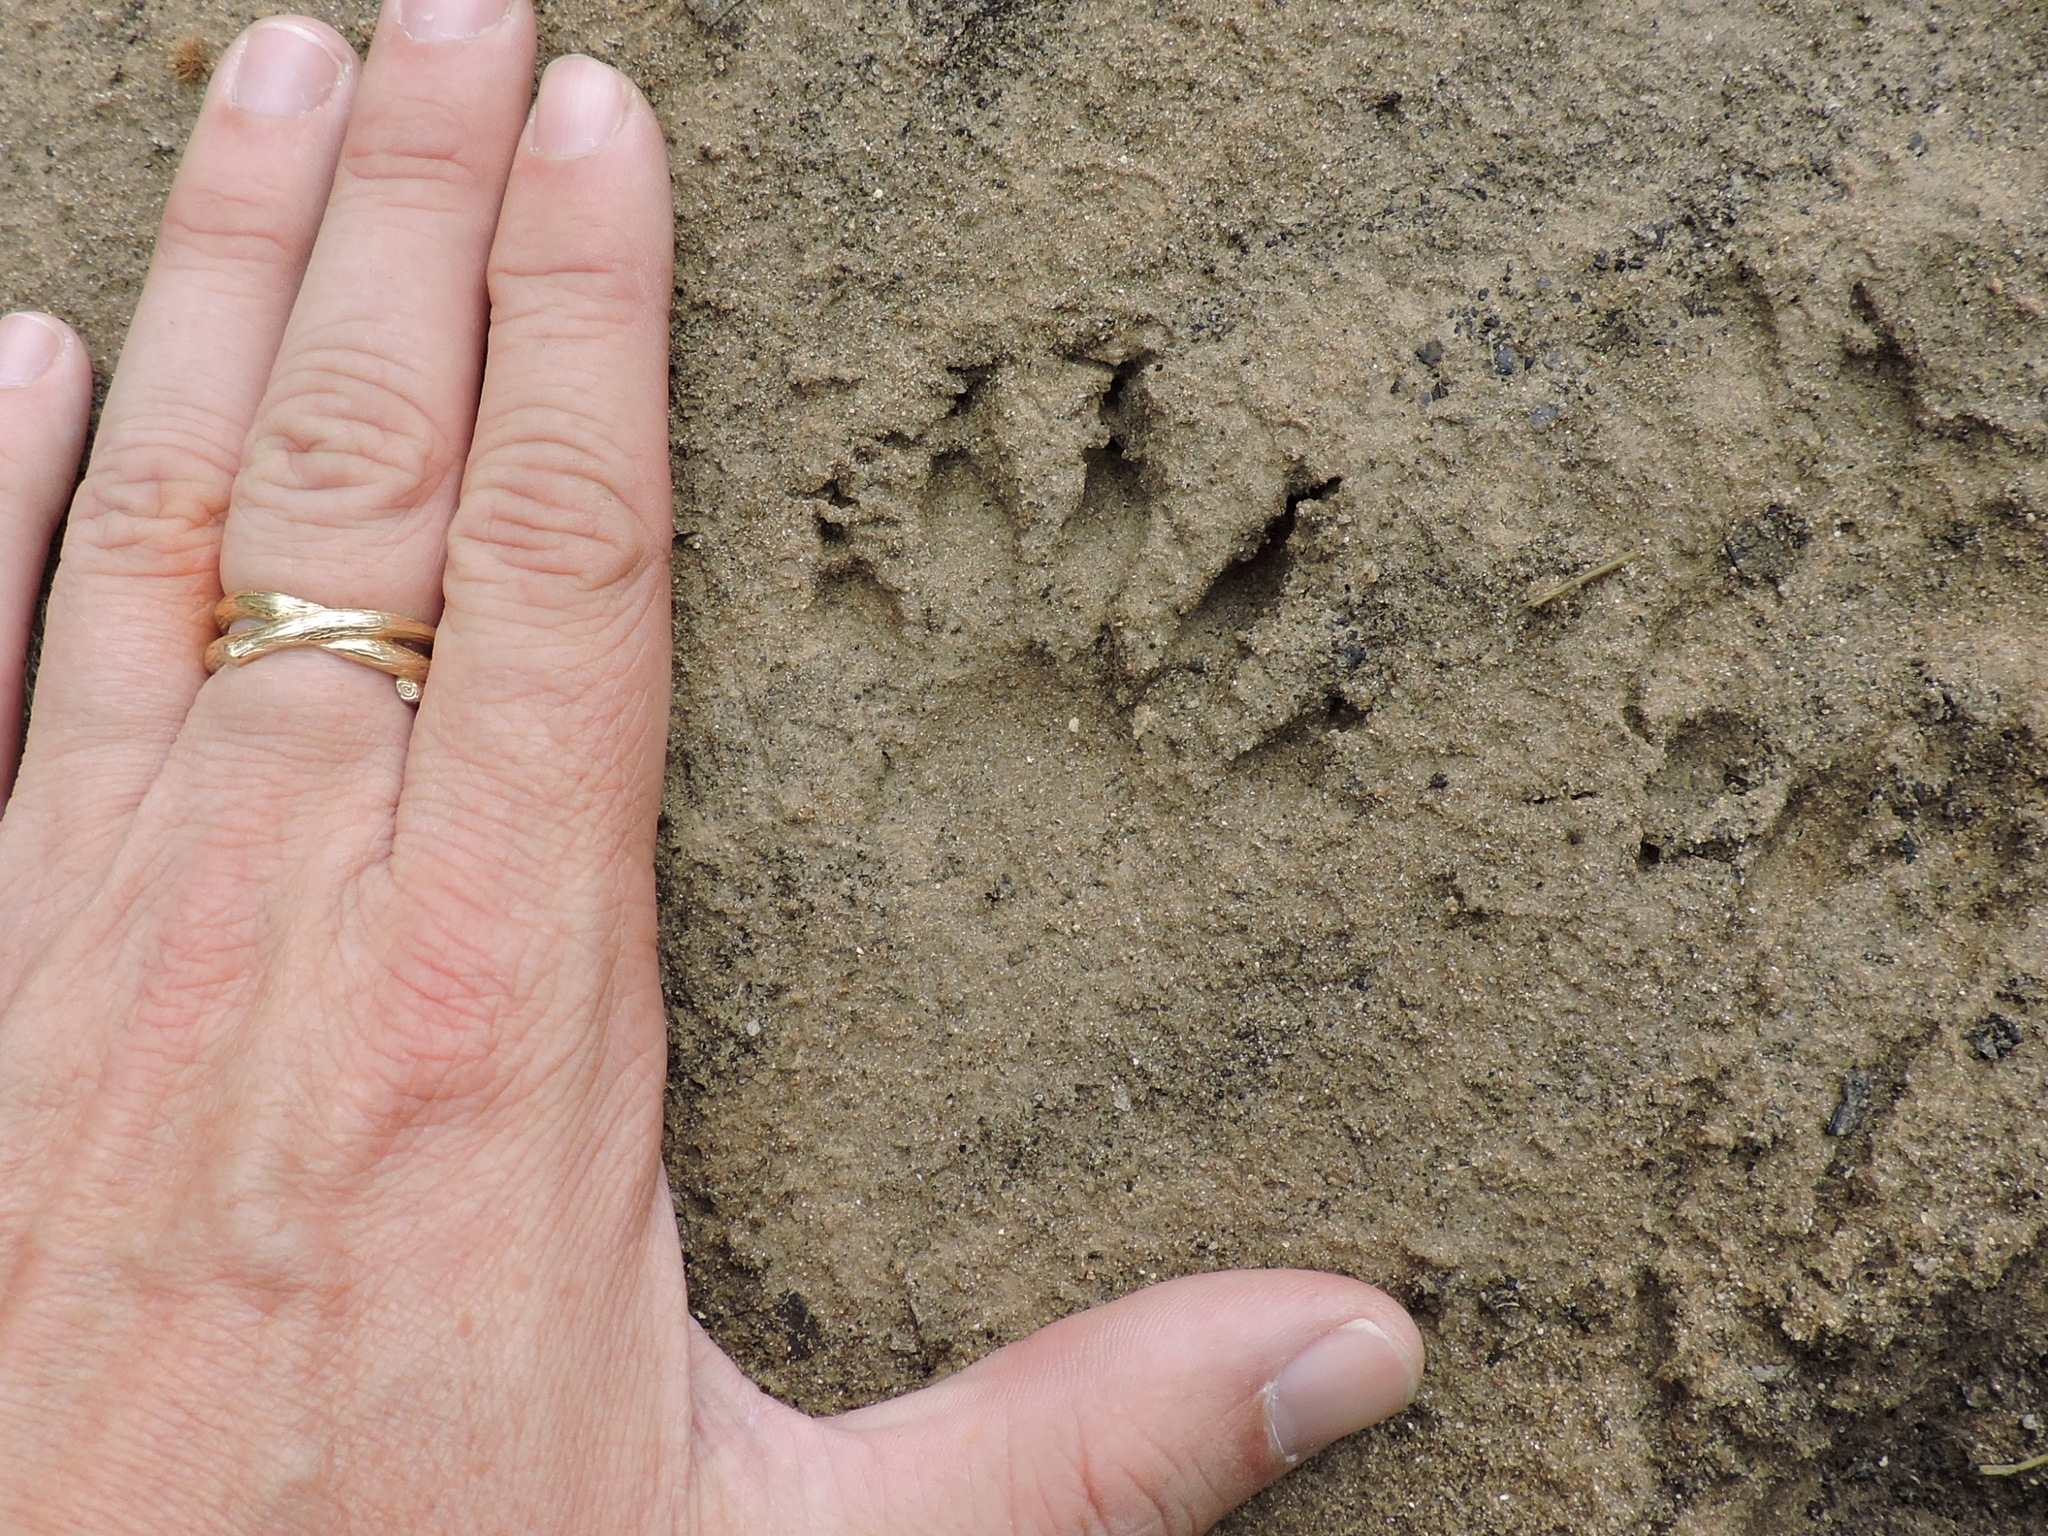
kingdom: Animalia
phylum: Chordata
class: Mammalia
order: Carnivora
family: Procyonidae
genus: Procyon
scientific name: Procyon lotor
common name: Raccoon
